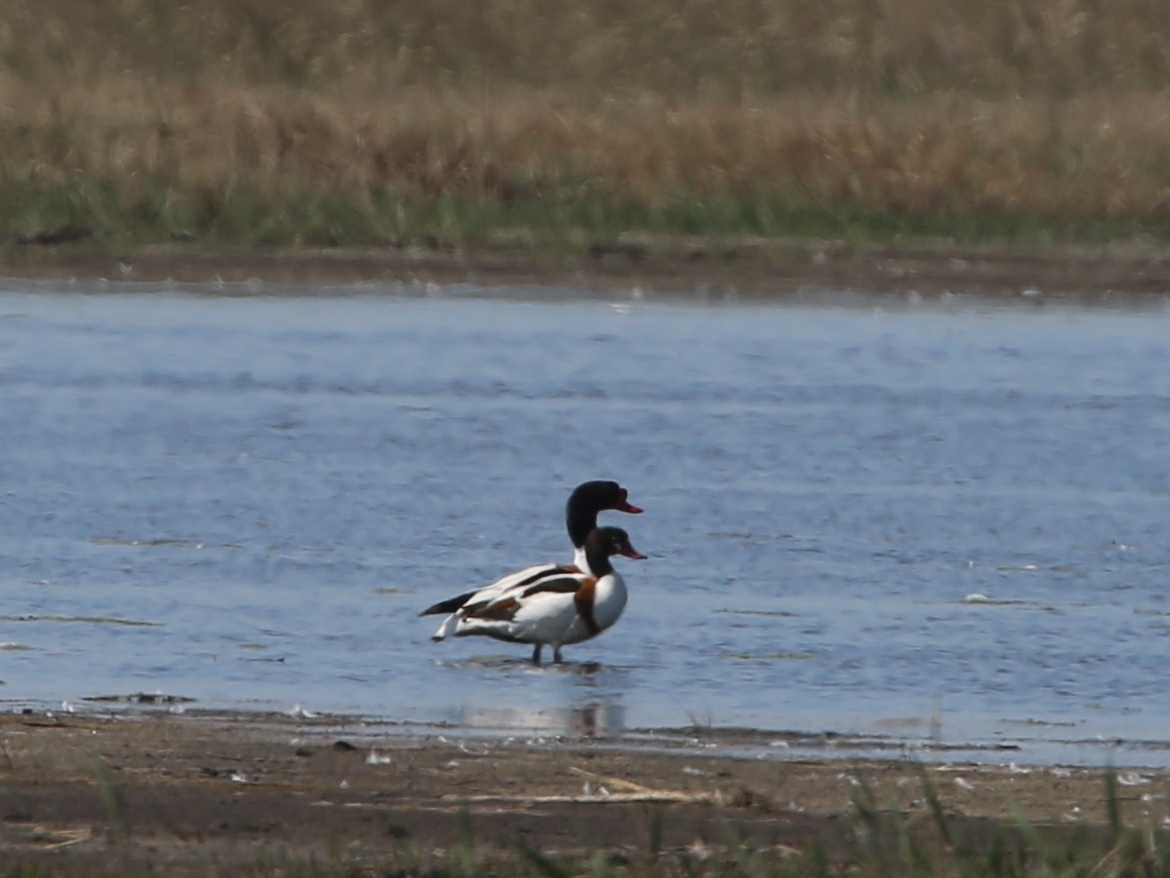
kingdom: Animalia
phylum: Chordata
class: Aves
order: Anseriformes
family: Anatidae
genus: Tadorna
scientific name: Tadorna tadorna
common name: Common shelduck
